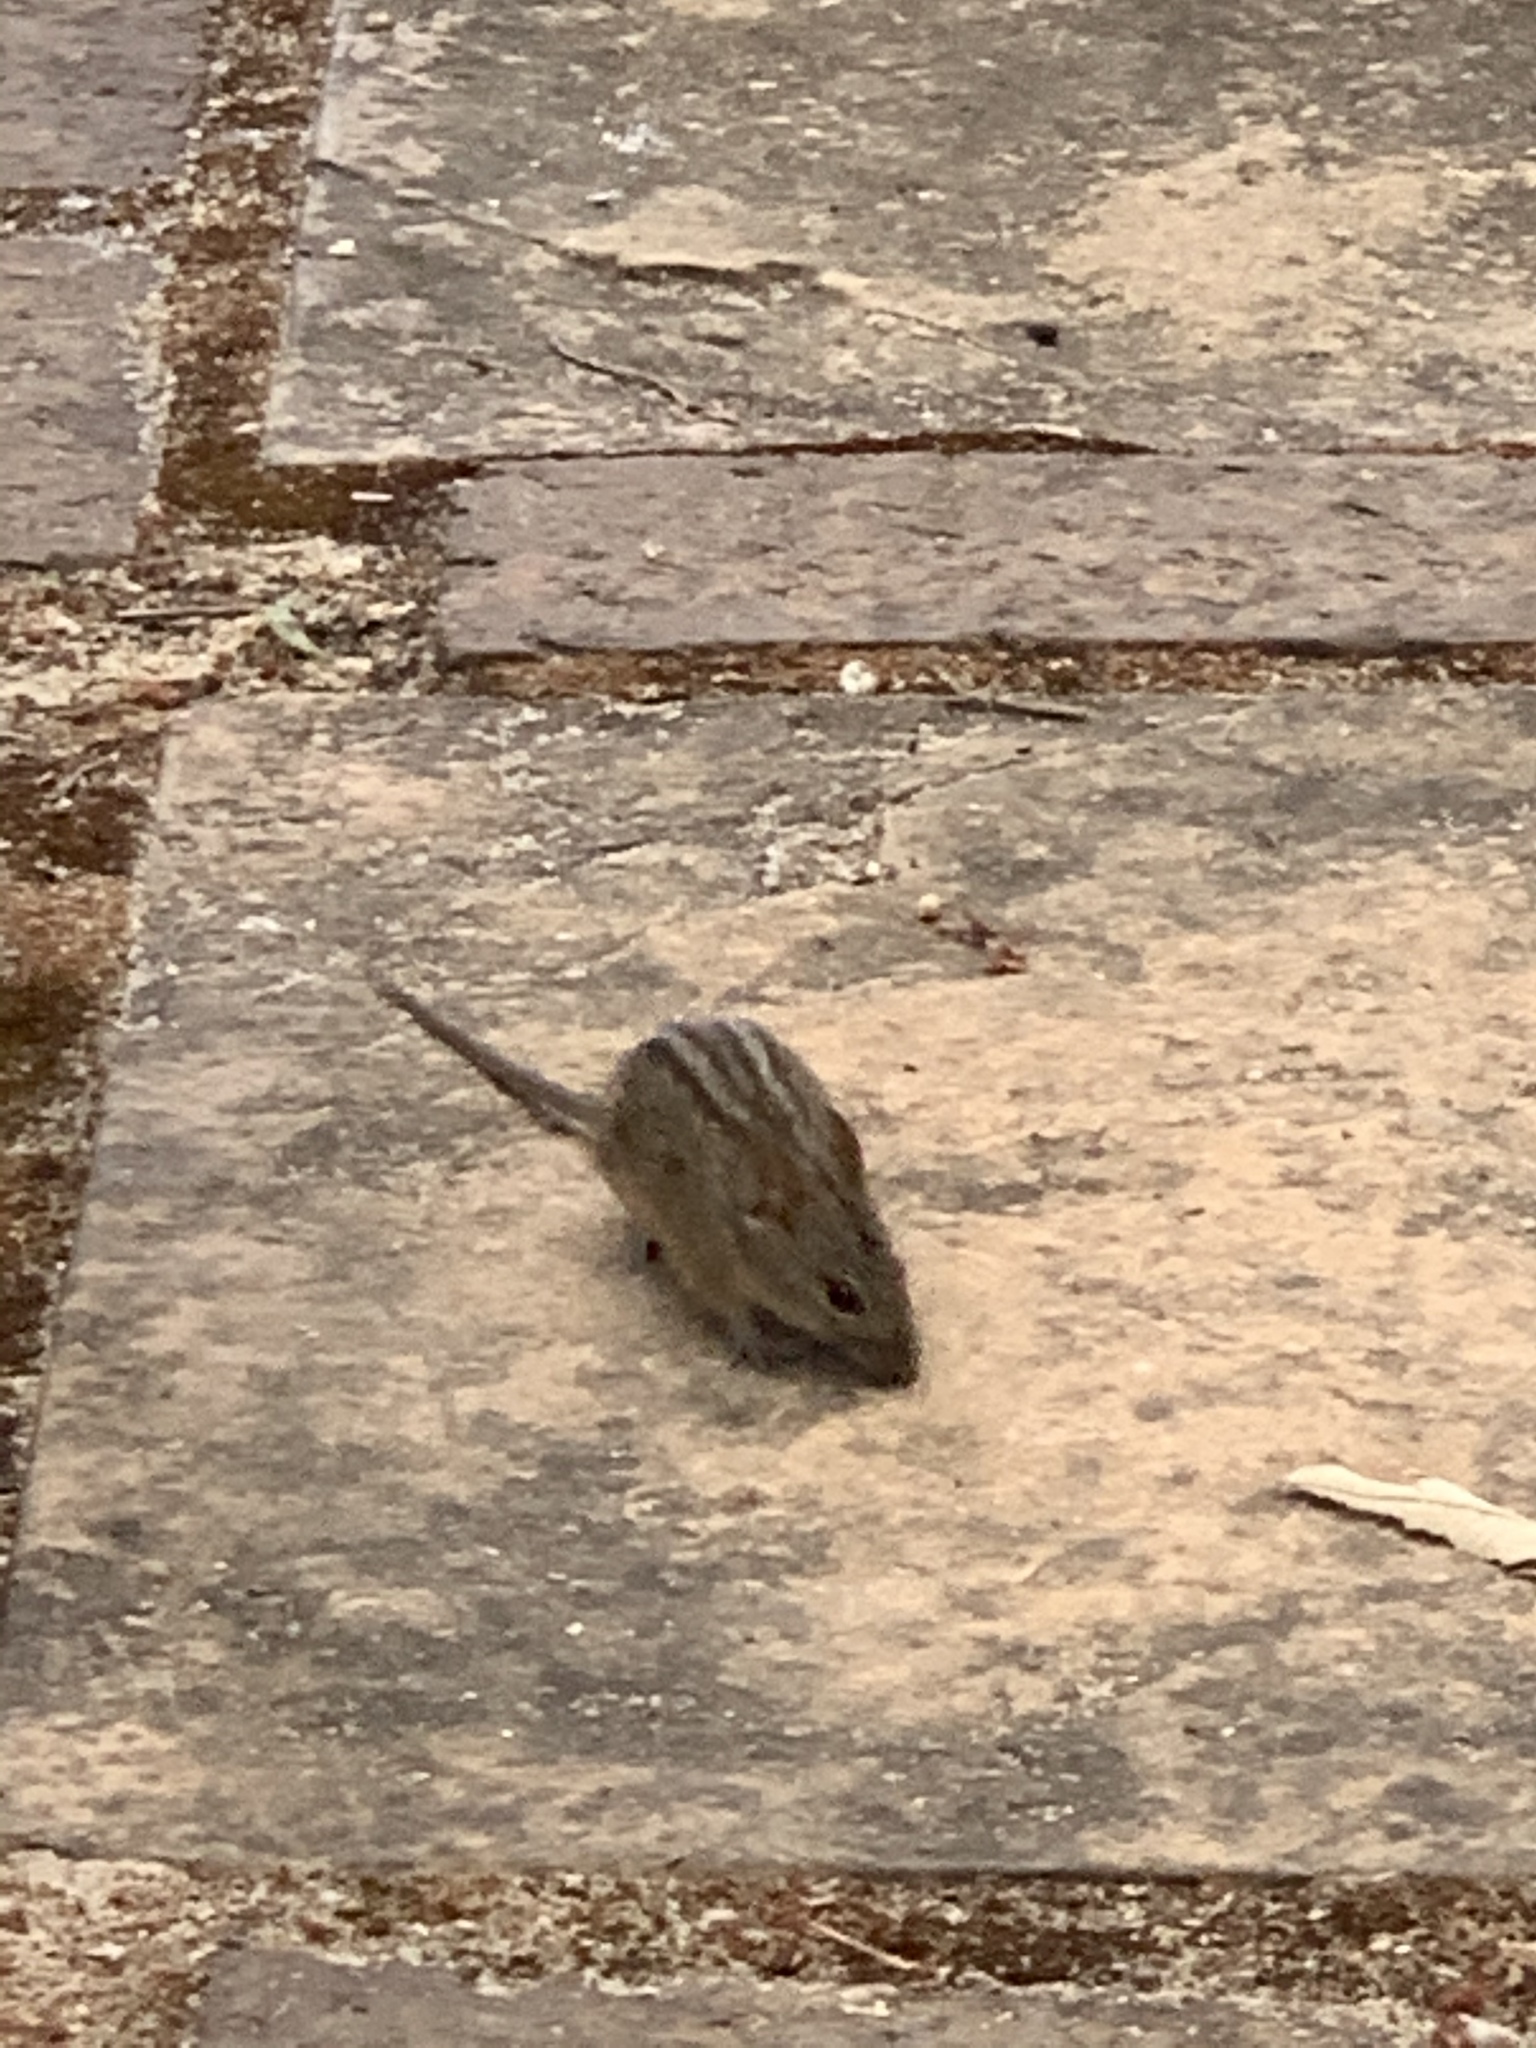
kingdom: Animalia
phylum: Chordata
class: Mammalia
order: Rodentia
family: Muridae
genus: Rhabdomys
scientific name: Rhabdomys pumilio
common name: Xeric four-striped grass rat
